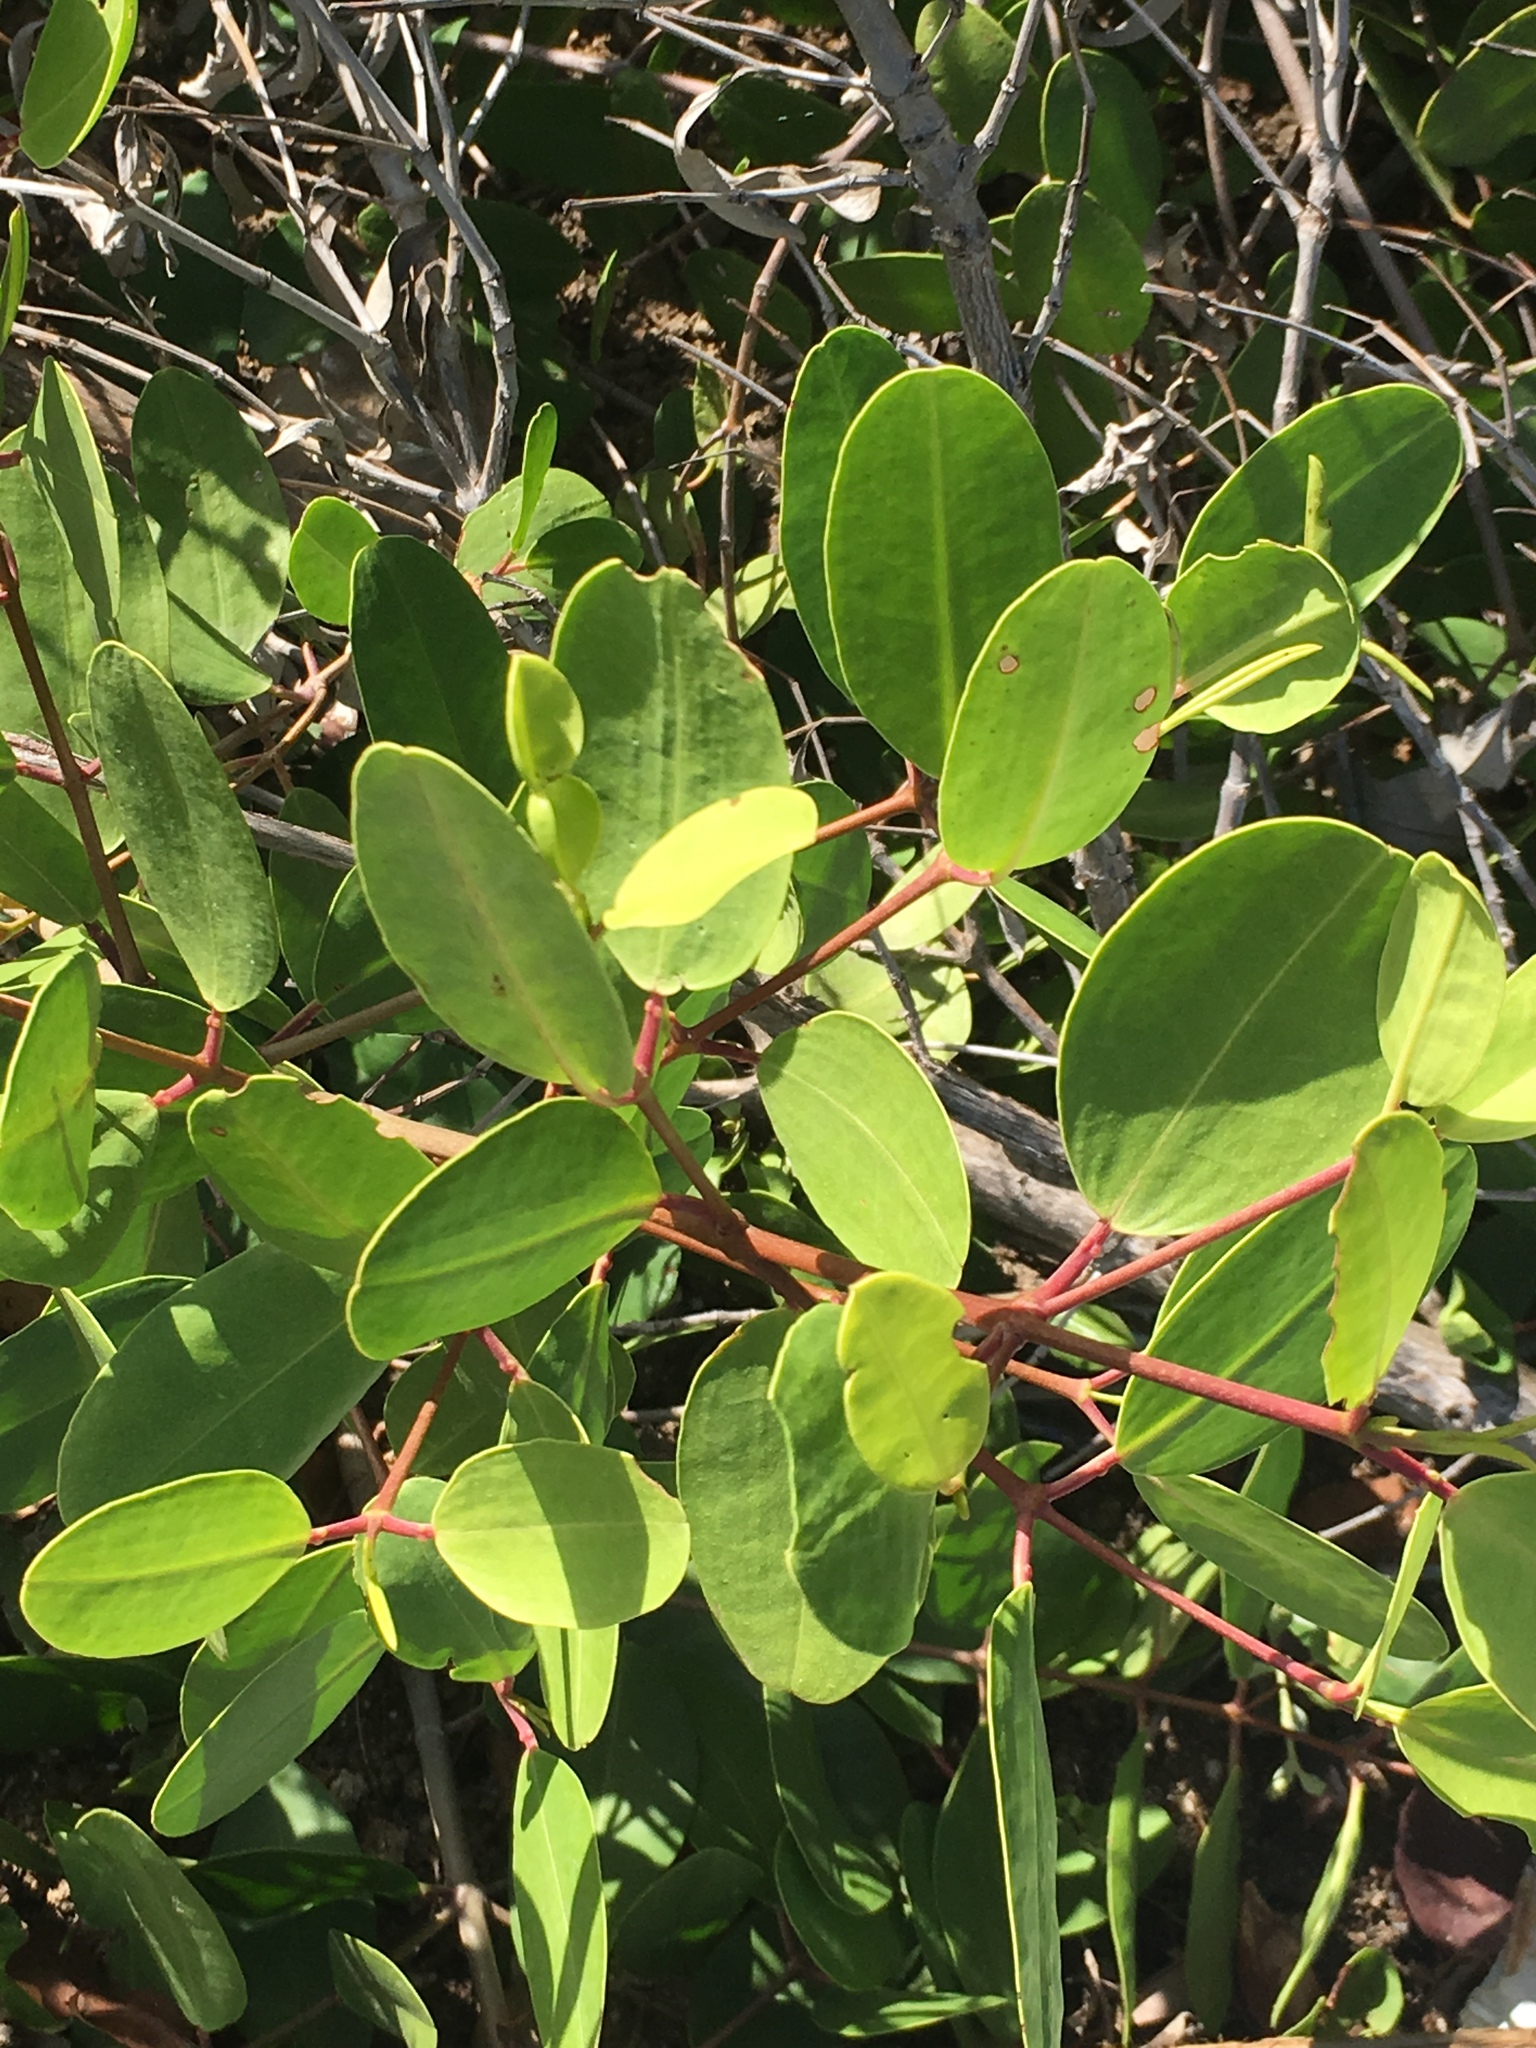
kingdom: Plantae
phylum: Tracheophyta
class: Magnoliopsida
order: Myrtales
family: Combretaceae
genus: Laguncularia
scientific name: Laguncularia racemosa
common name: White mangrove
